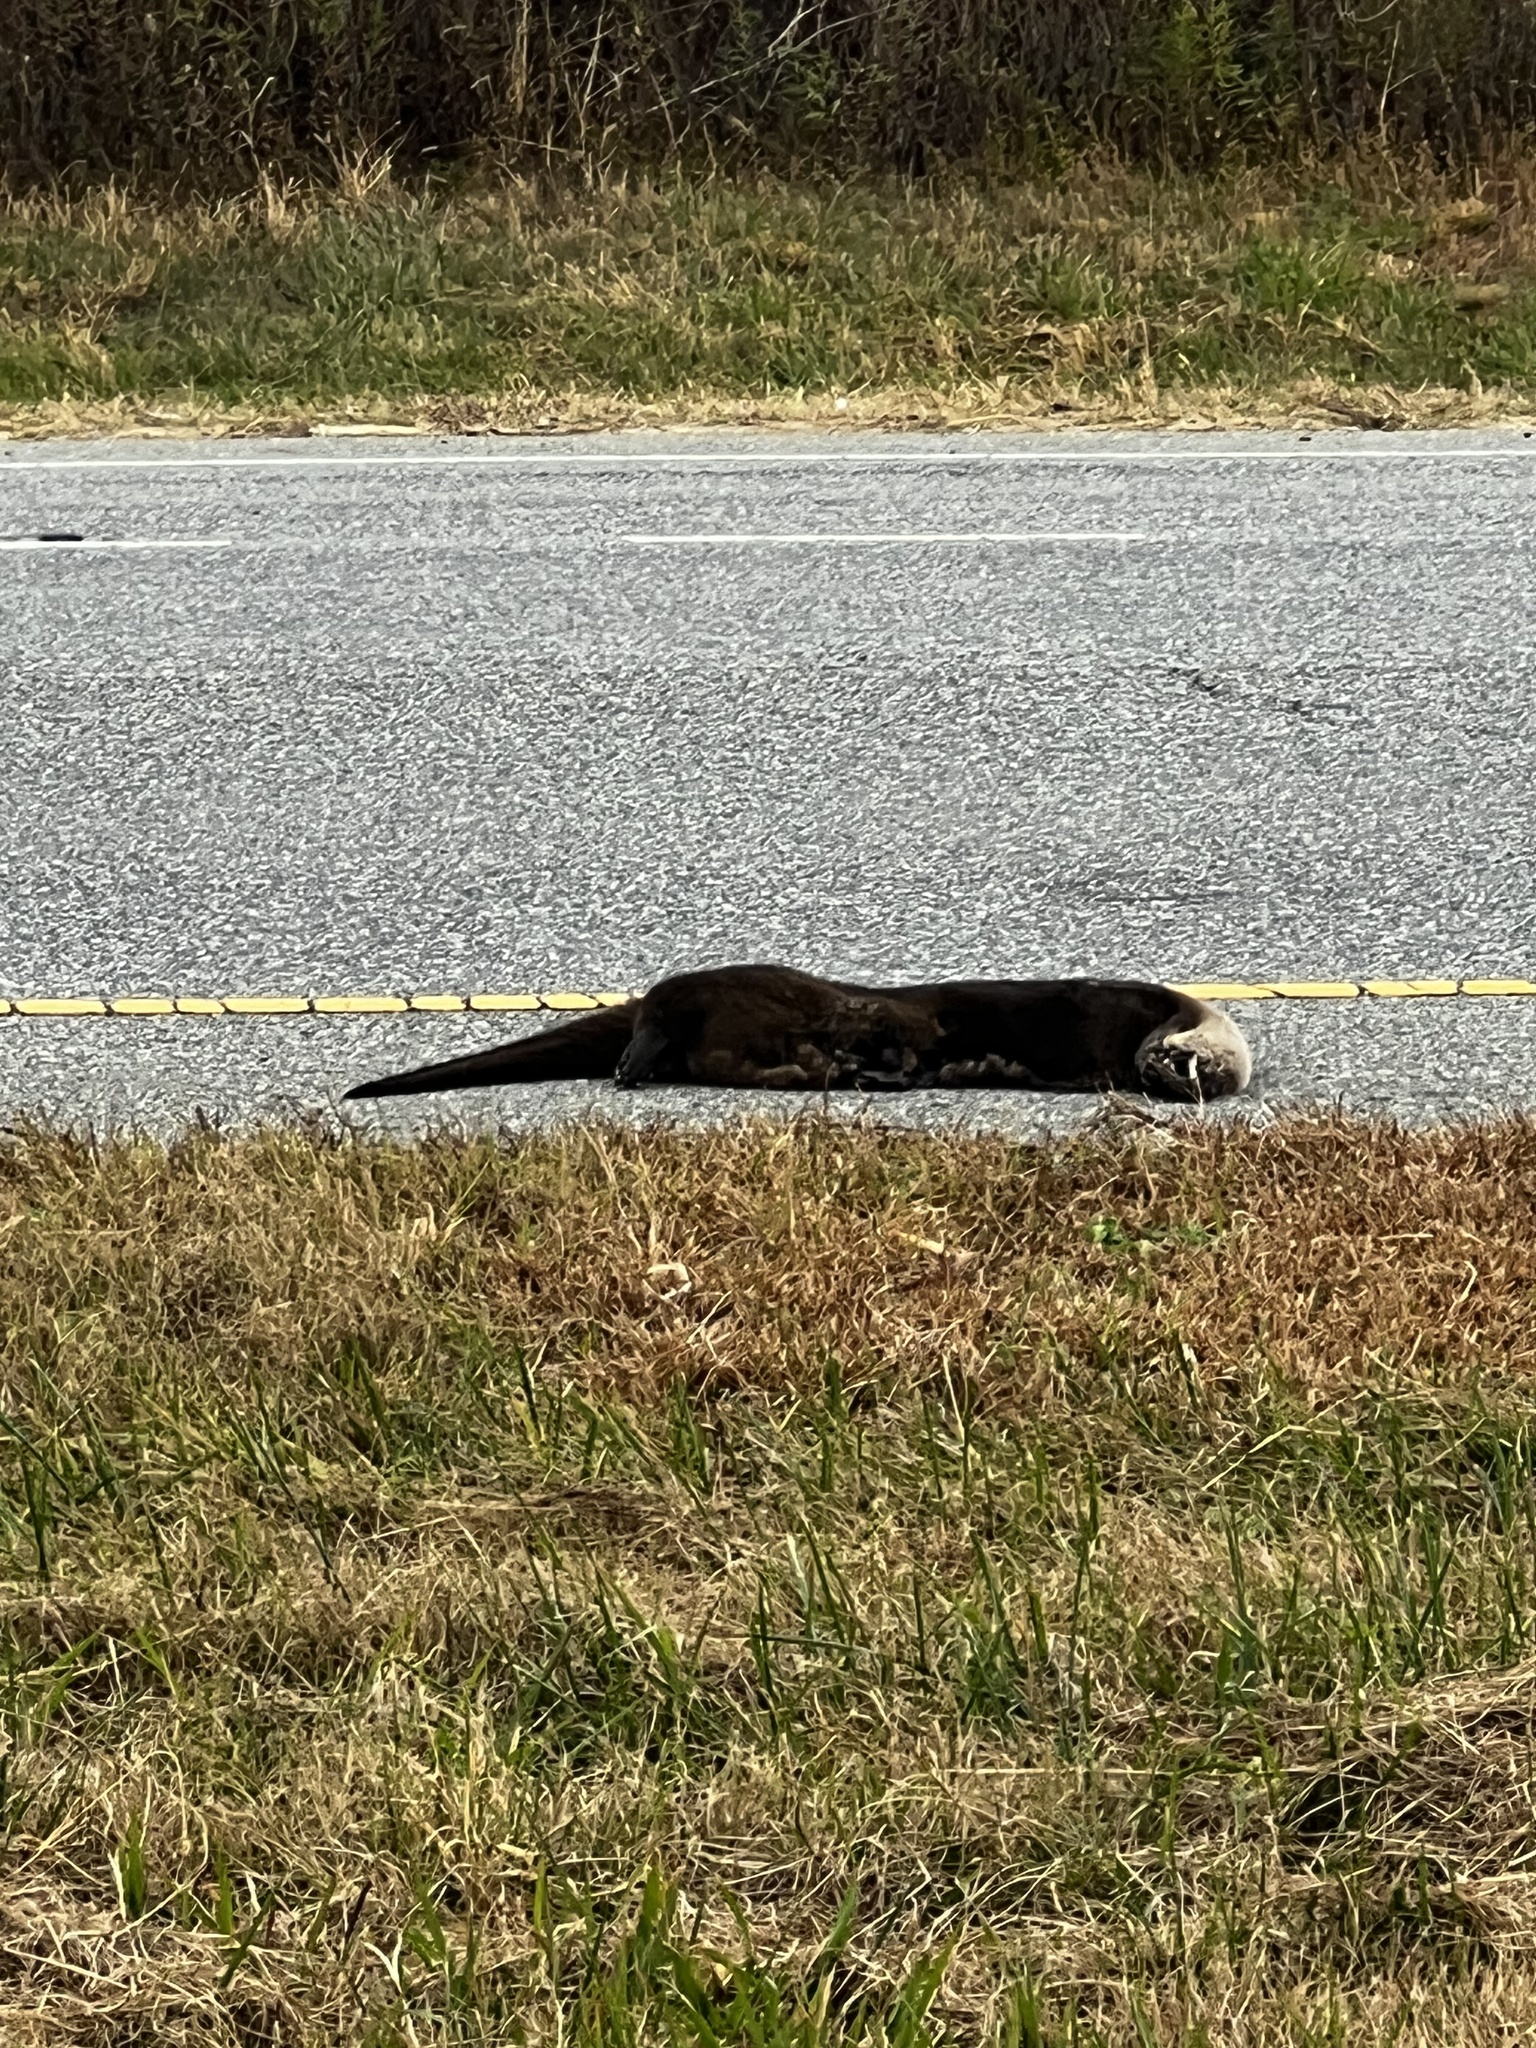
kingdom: Animalia
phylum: Chordata
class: Mammalia
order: Carnivora
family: Mustelidae
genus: Lontra
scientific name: Lontra canadensis
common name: North american river otter
